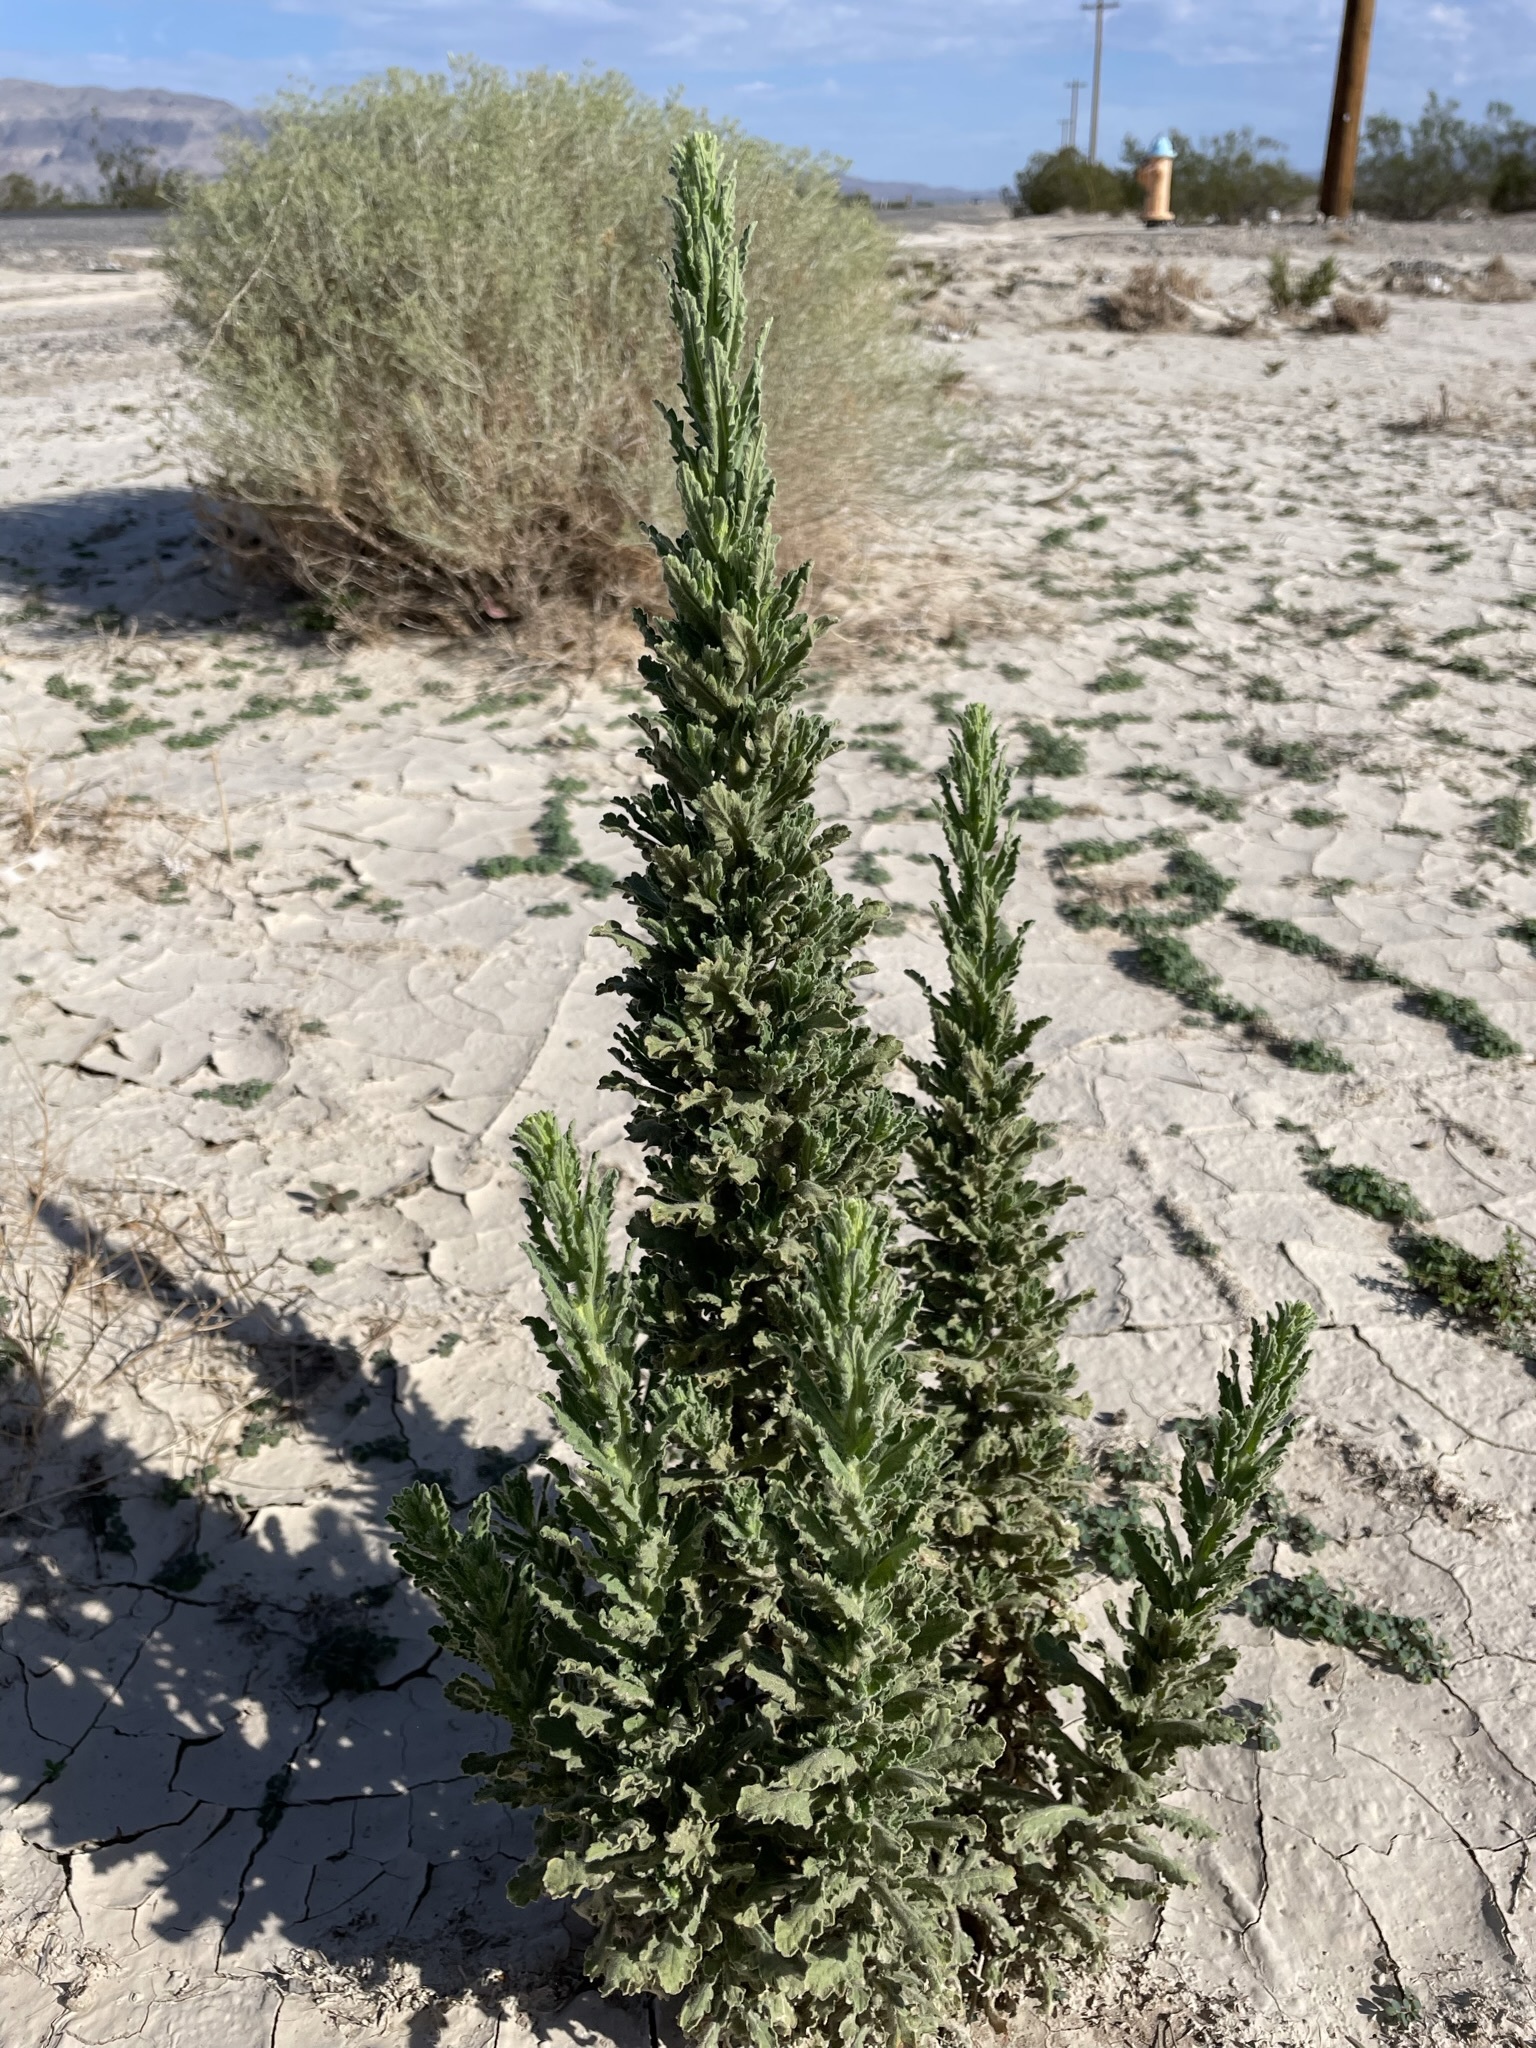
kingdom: Plantae
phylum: Tracheophyta
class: Magnoliopsida
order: Asterales
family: Asteraceae
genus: Laennecia
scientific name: Laennecia coulteri
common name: Coulter's woolwort
